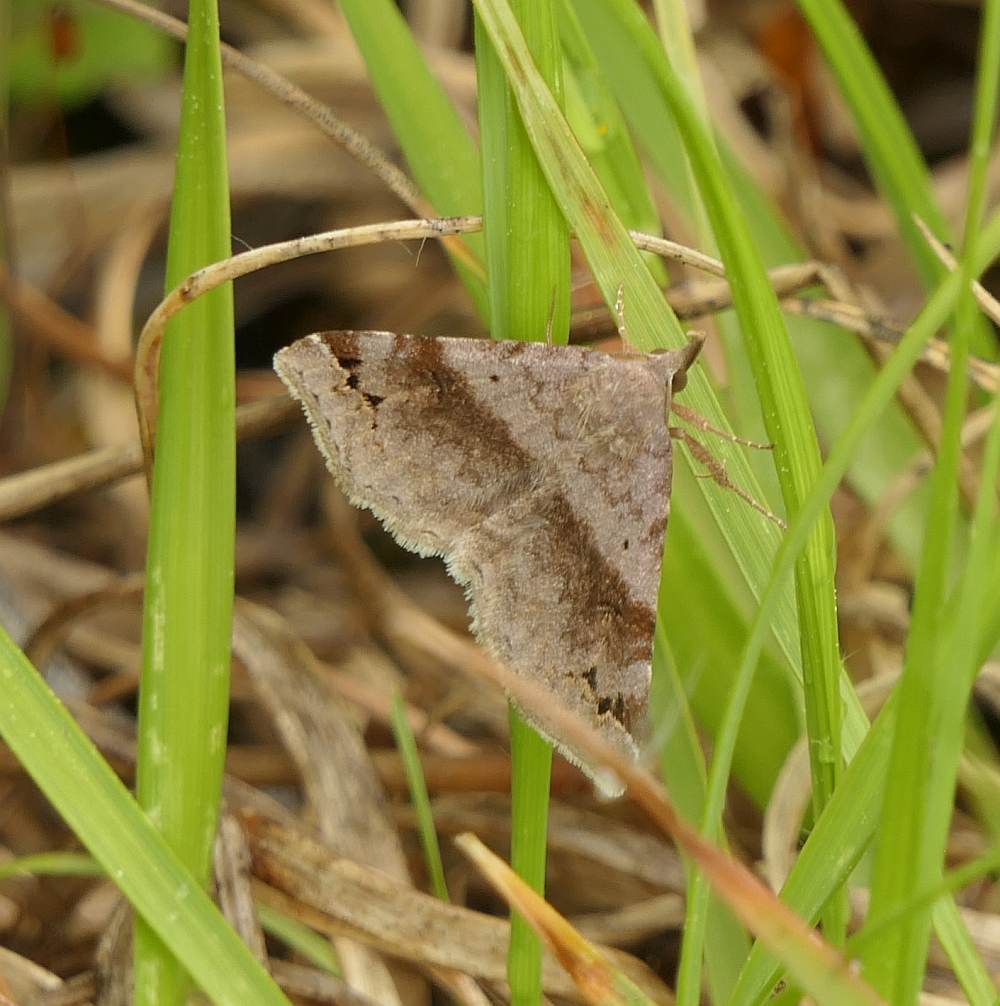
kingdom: Animalia
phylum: Arthropoda
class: Insecta
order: Lepidoptera
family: Erebidae
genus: Spargaloma
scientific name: Spargaloma sexpunctata
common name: Six-spotted gray
